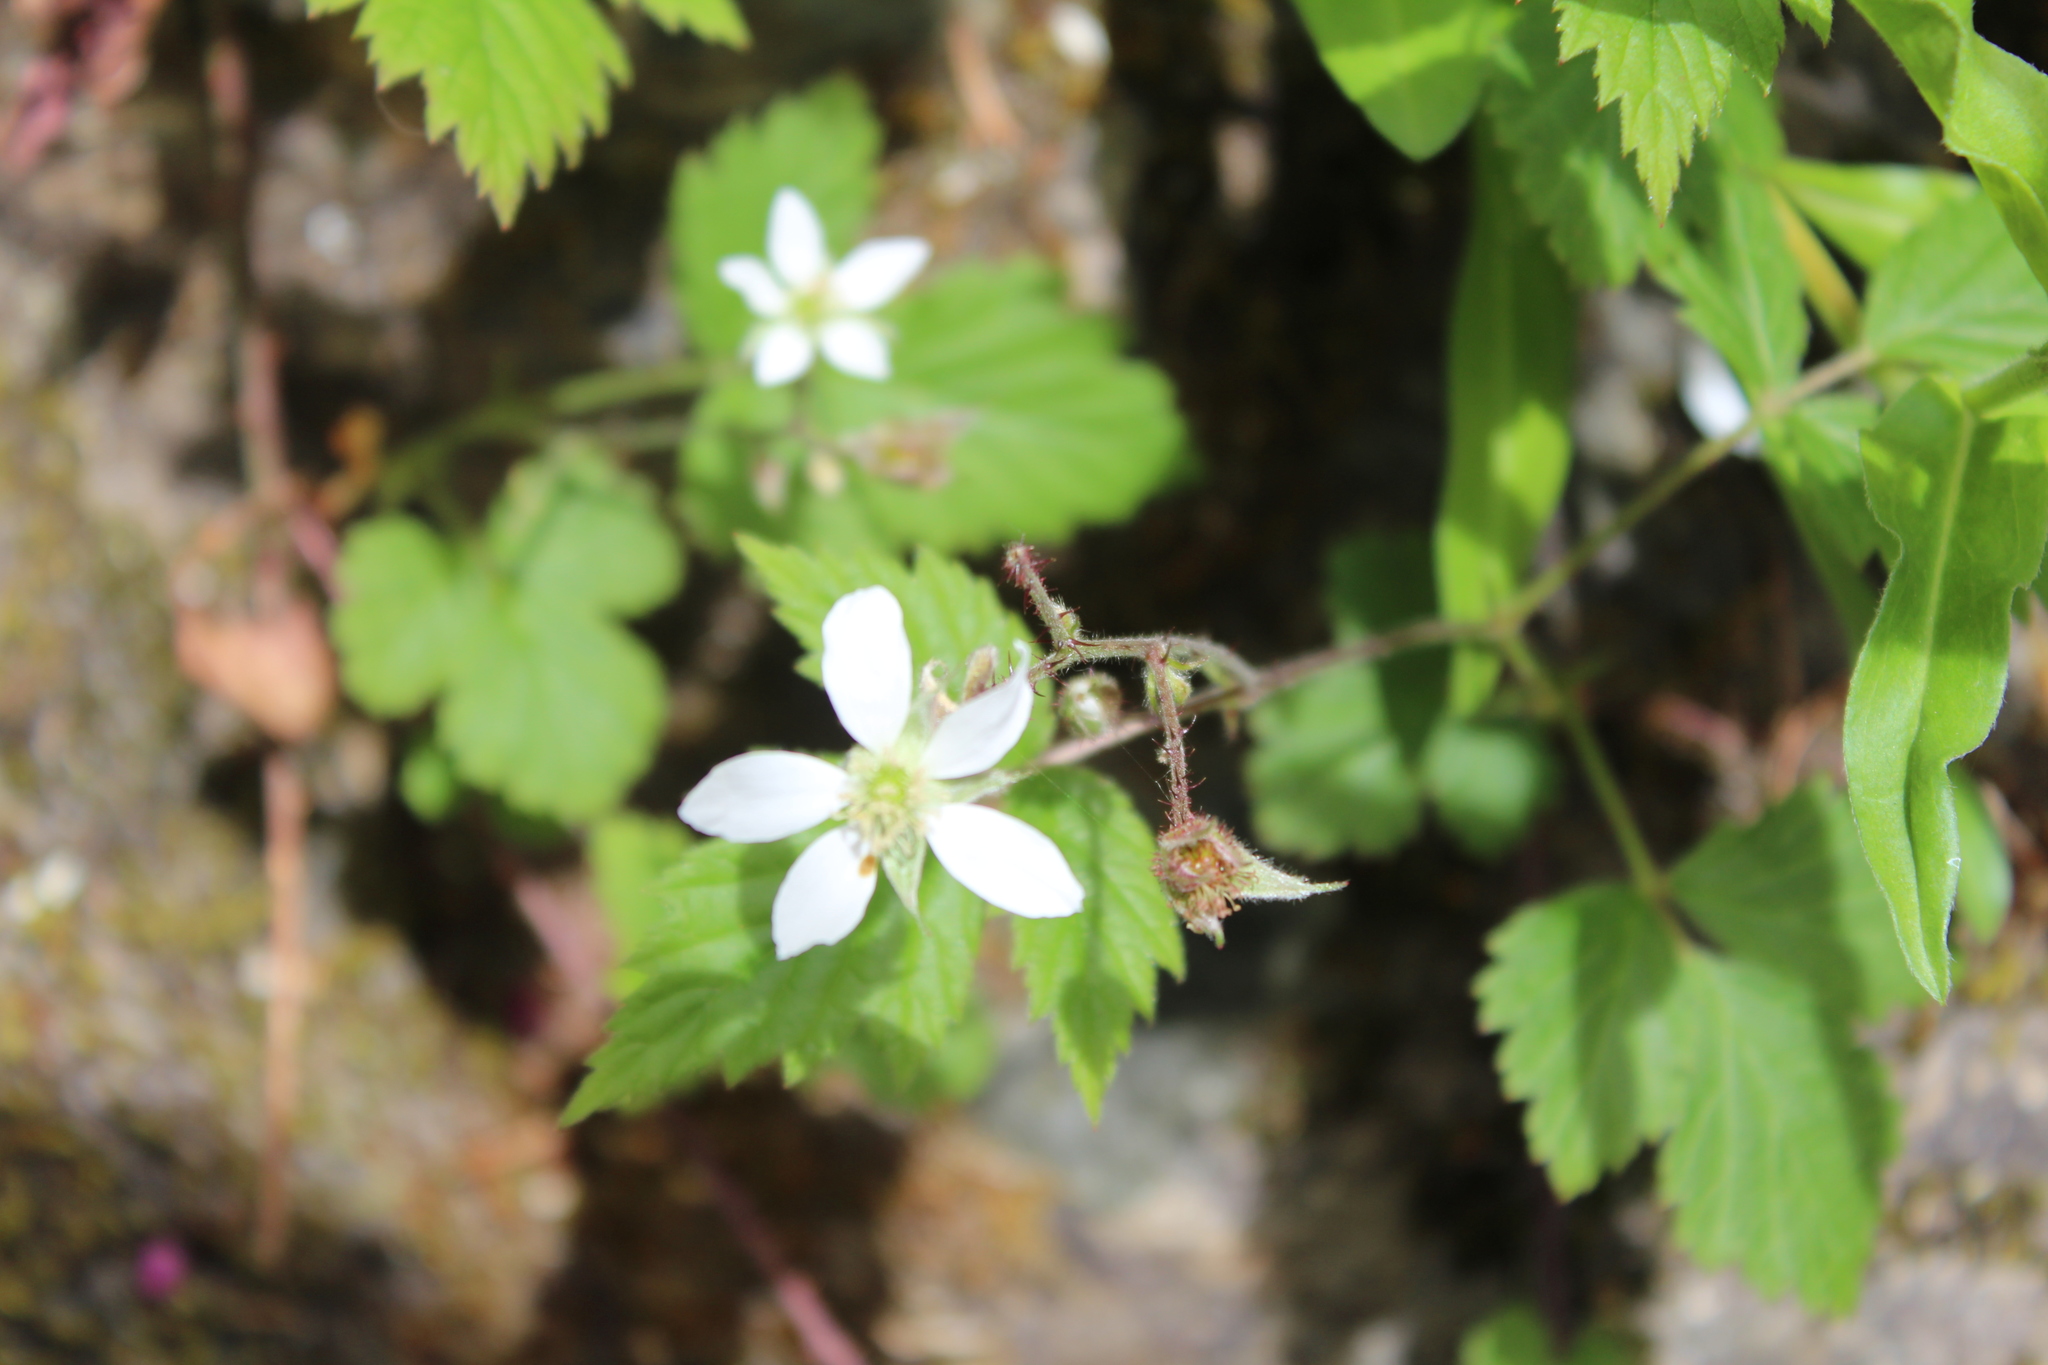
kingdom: Plantae
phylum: Tracheophyta
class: Magnoliopsida
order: Rosales
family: Rosaceae
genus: Rubus
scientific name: Rubus ursinus
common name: Pacific blackberry
